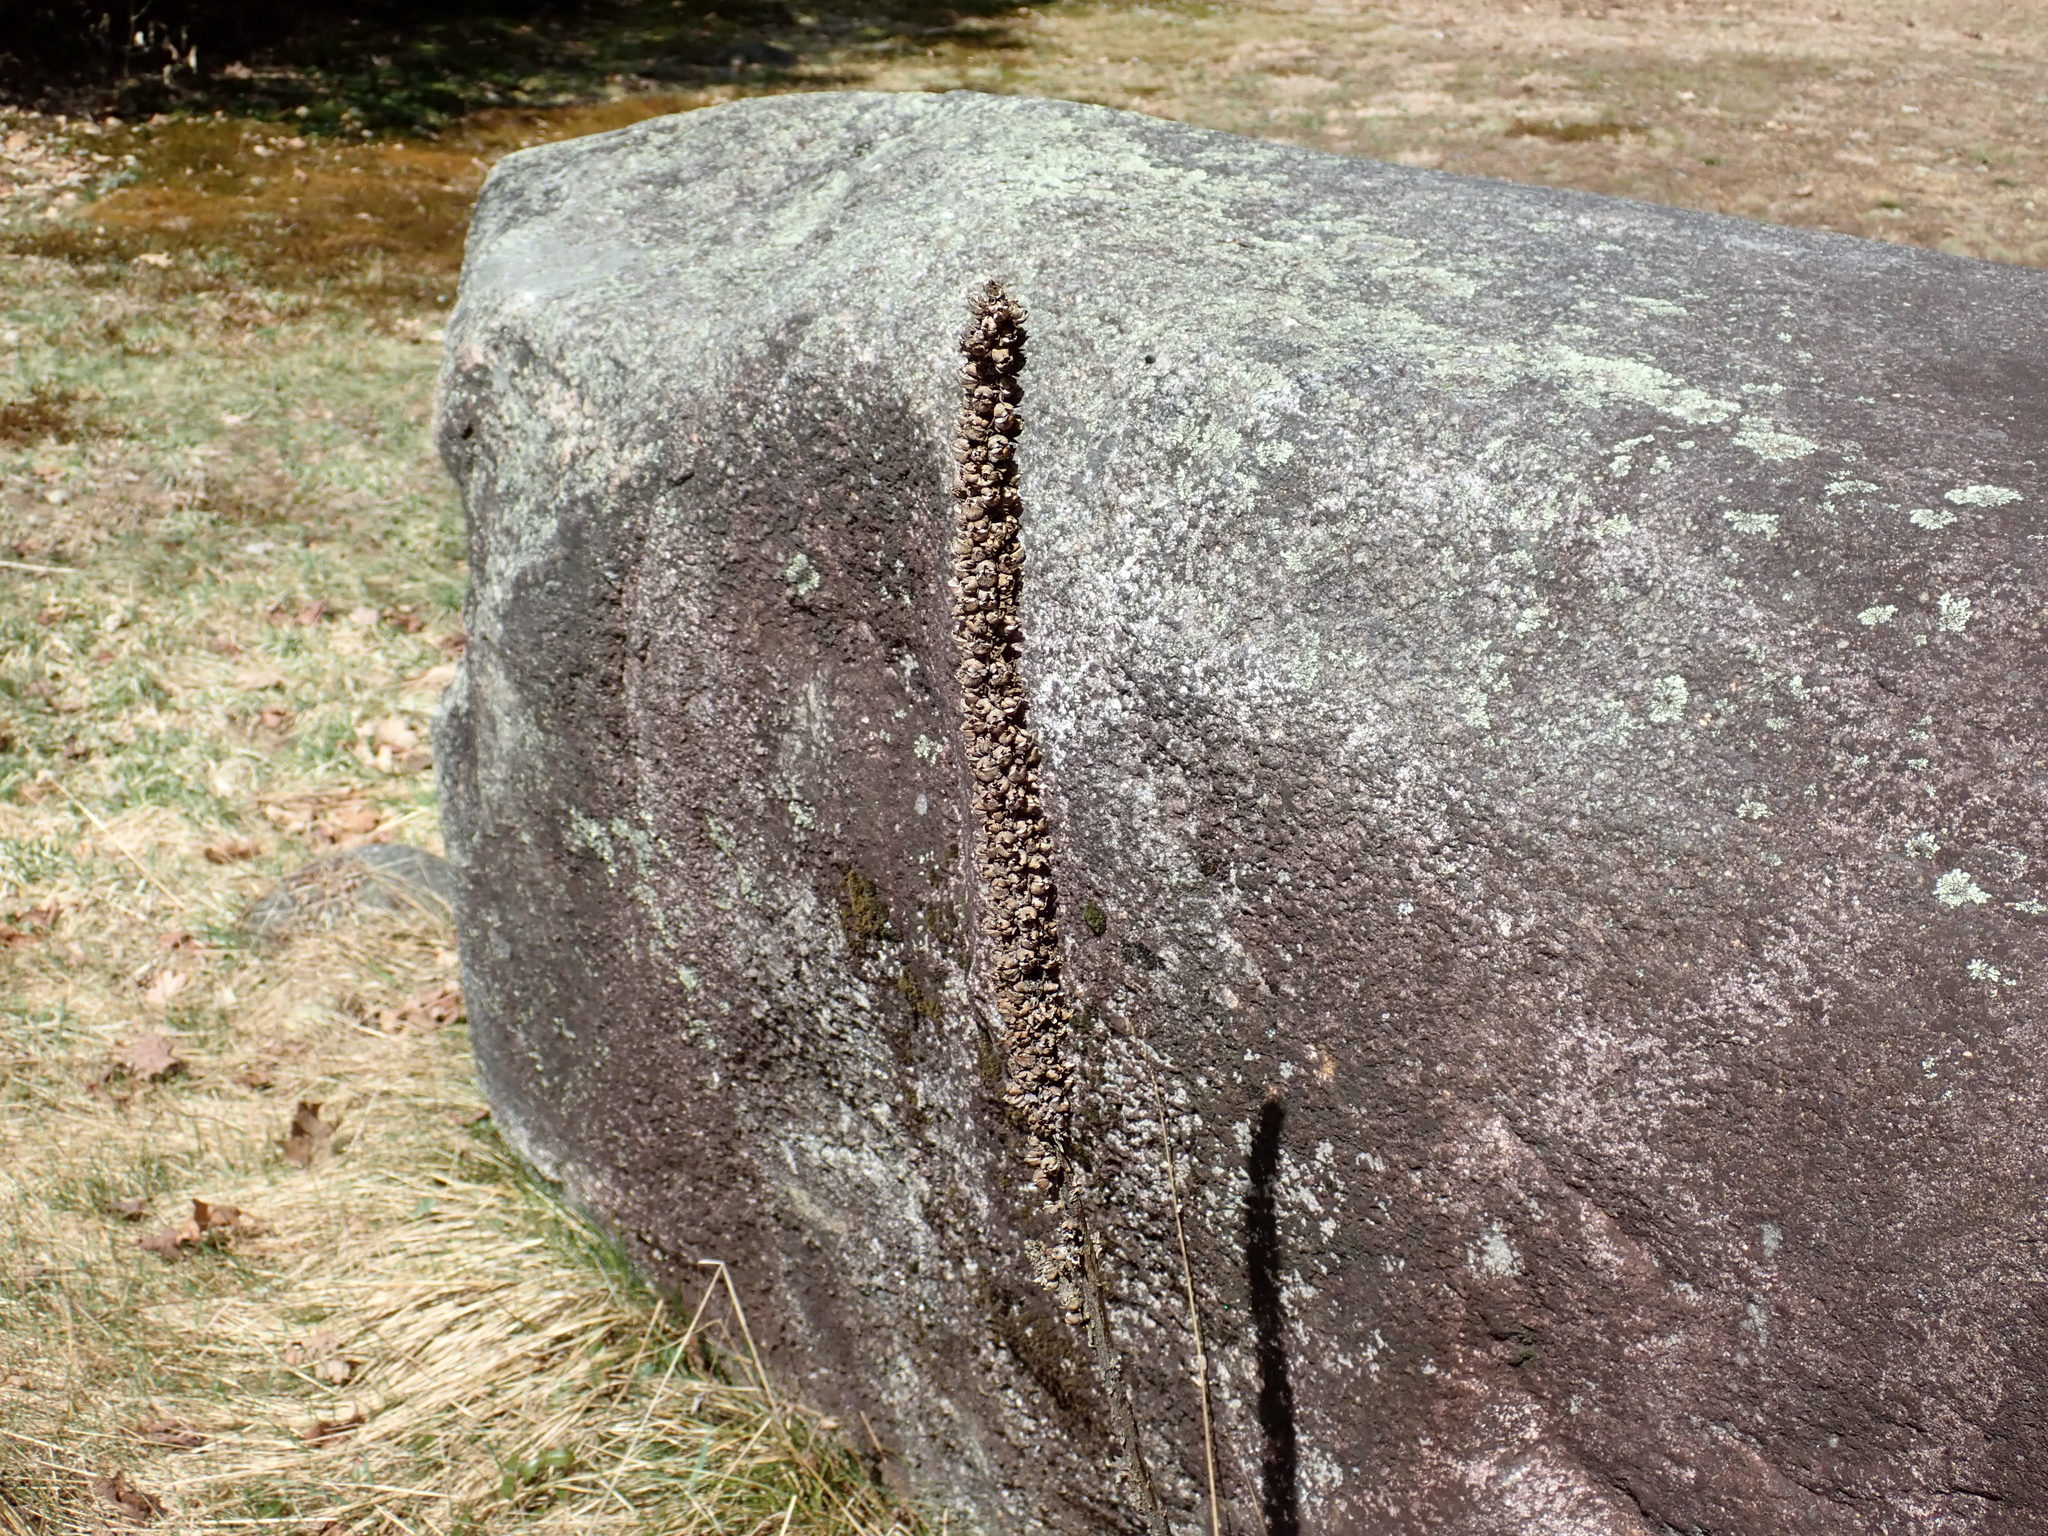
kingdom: Plantae
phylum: Tracheophyta
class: Magnoliopsida
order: Lamiales
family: Scrophulariaceae
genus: Verbascum
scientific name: Verbascum thapsus
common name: Common mullein
